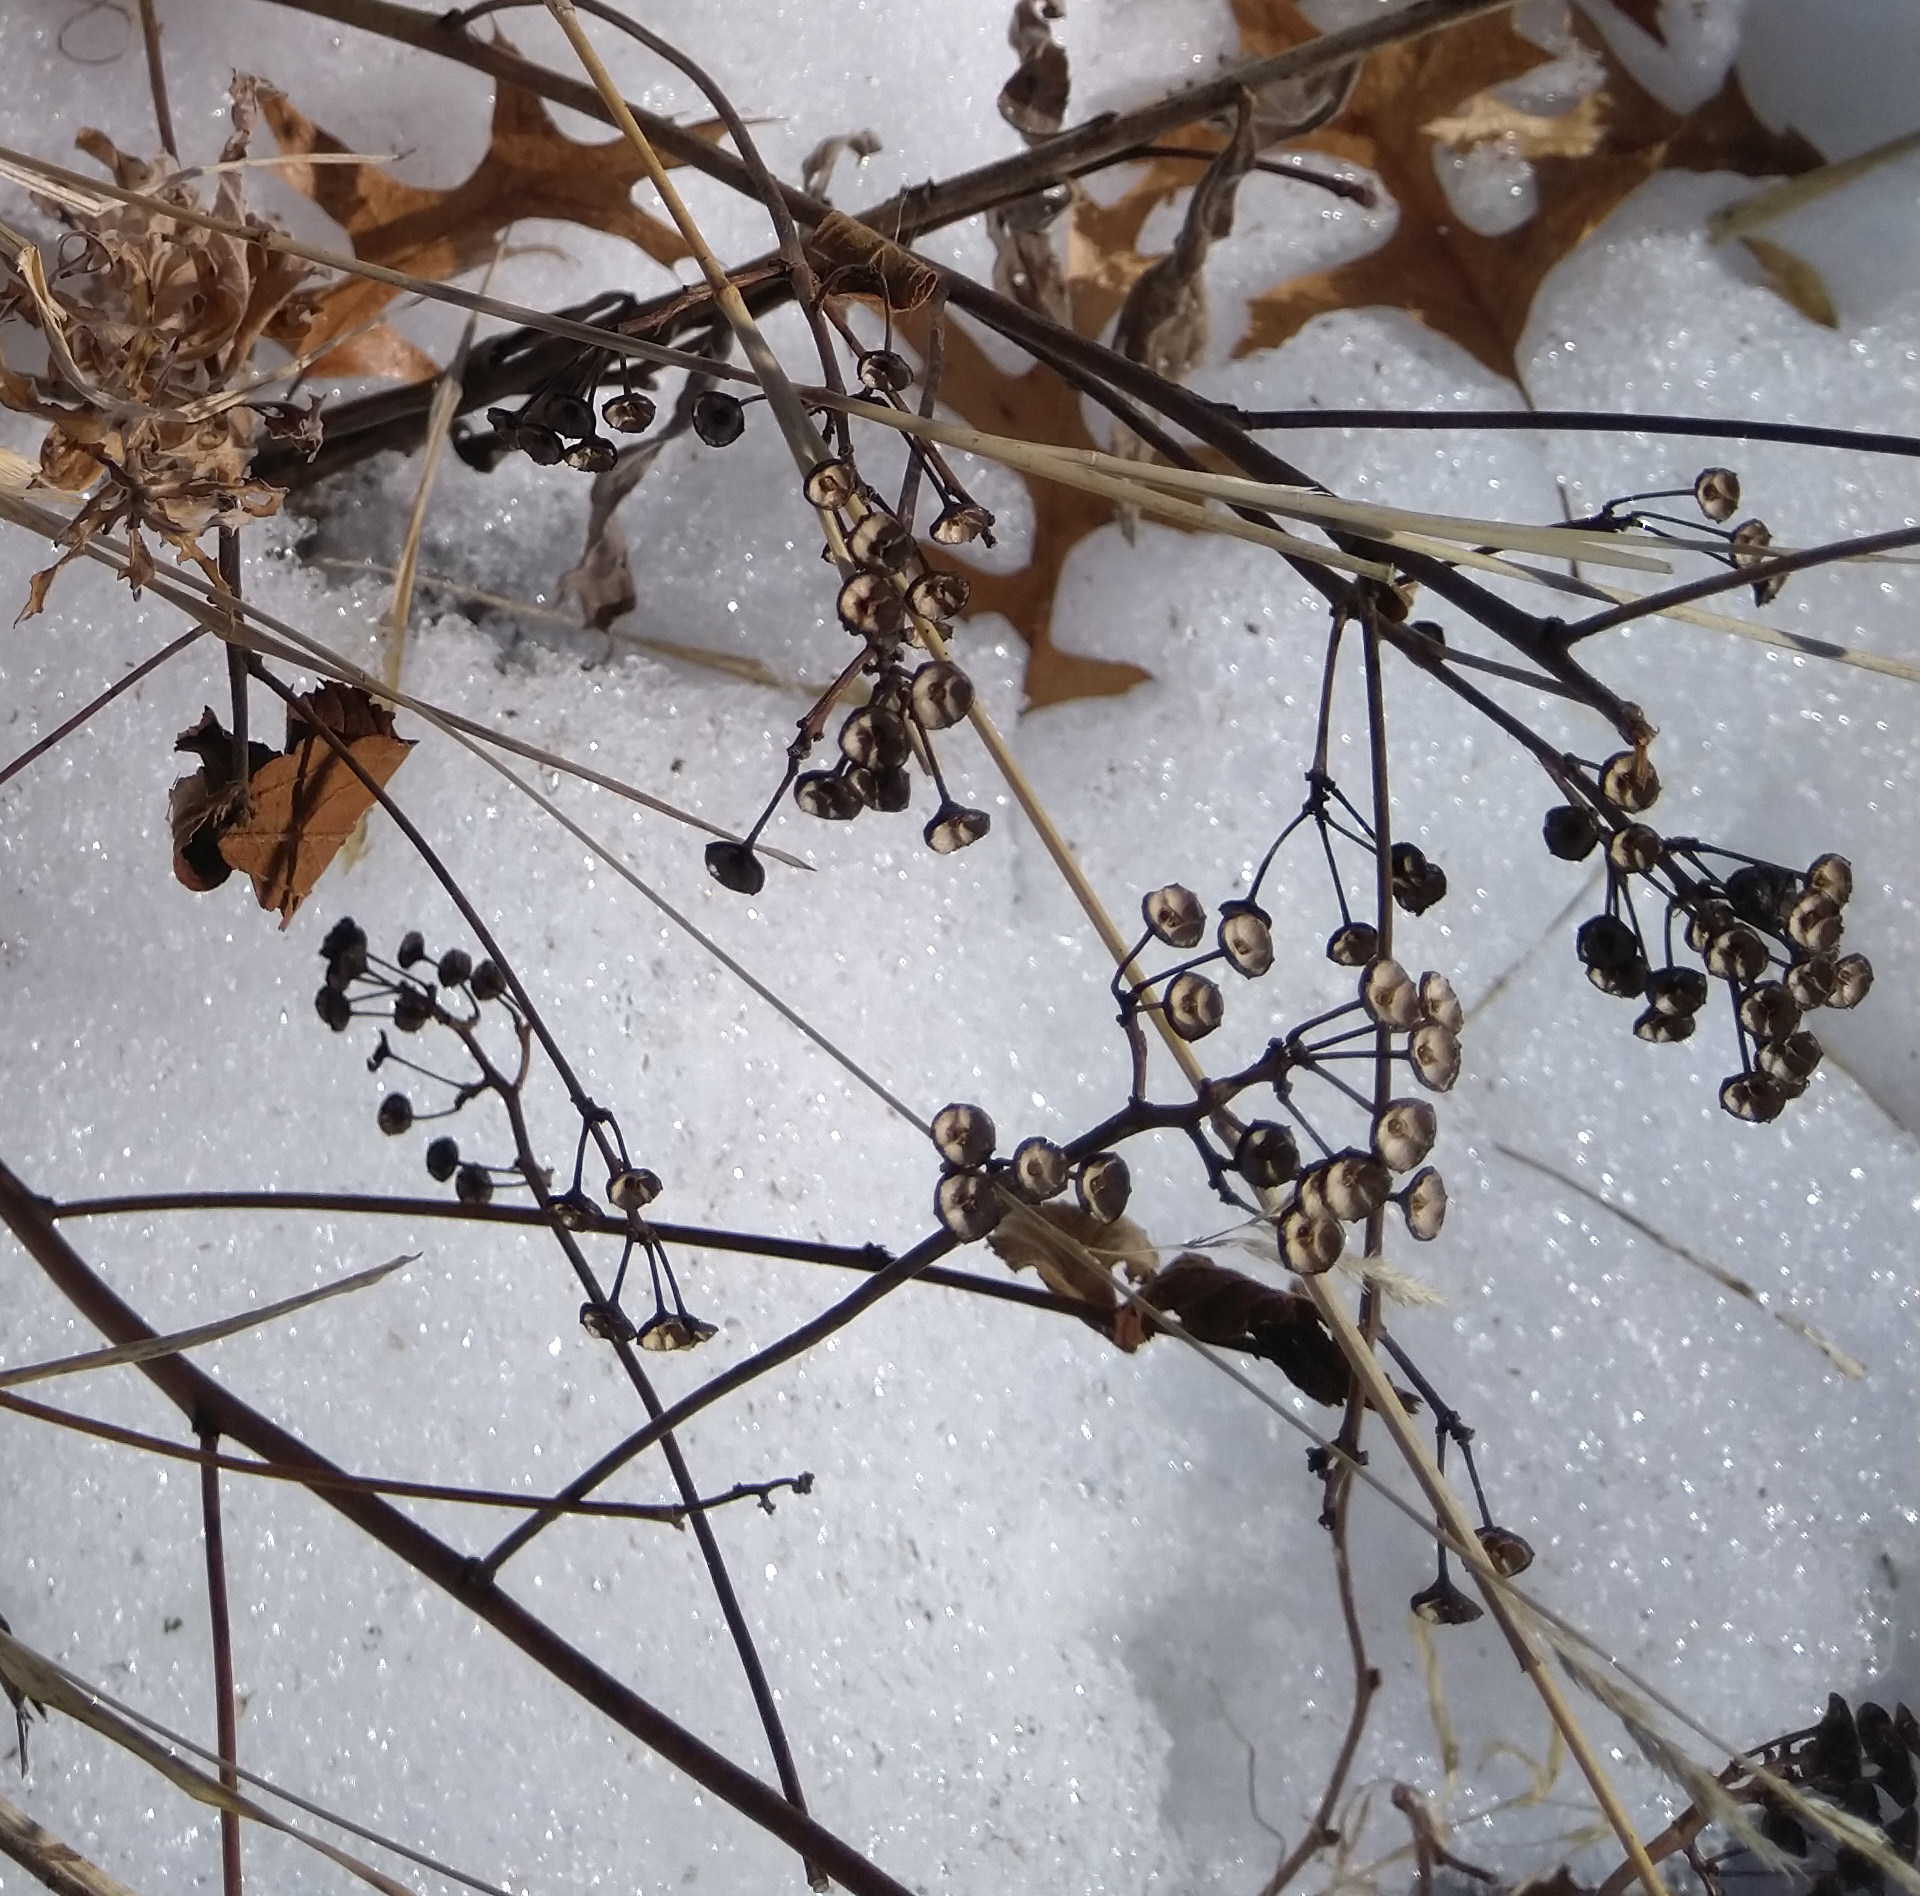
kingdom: Plantae
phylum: Tracheophyta
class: Magnoliopsida
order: Rosales
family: Rhamnaceae
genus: Ceanothus
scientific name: Ceanothus americanus
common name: Redroot
